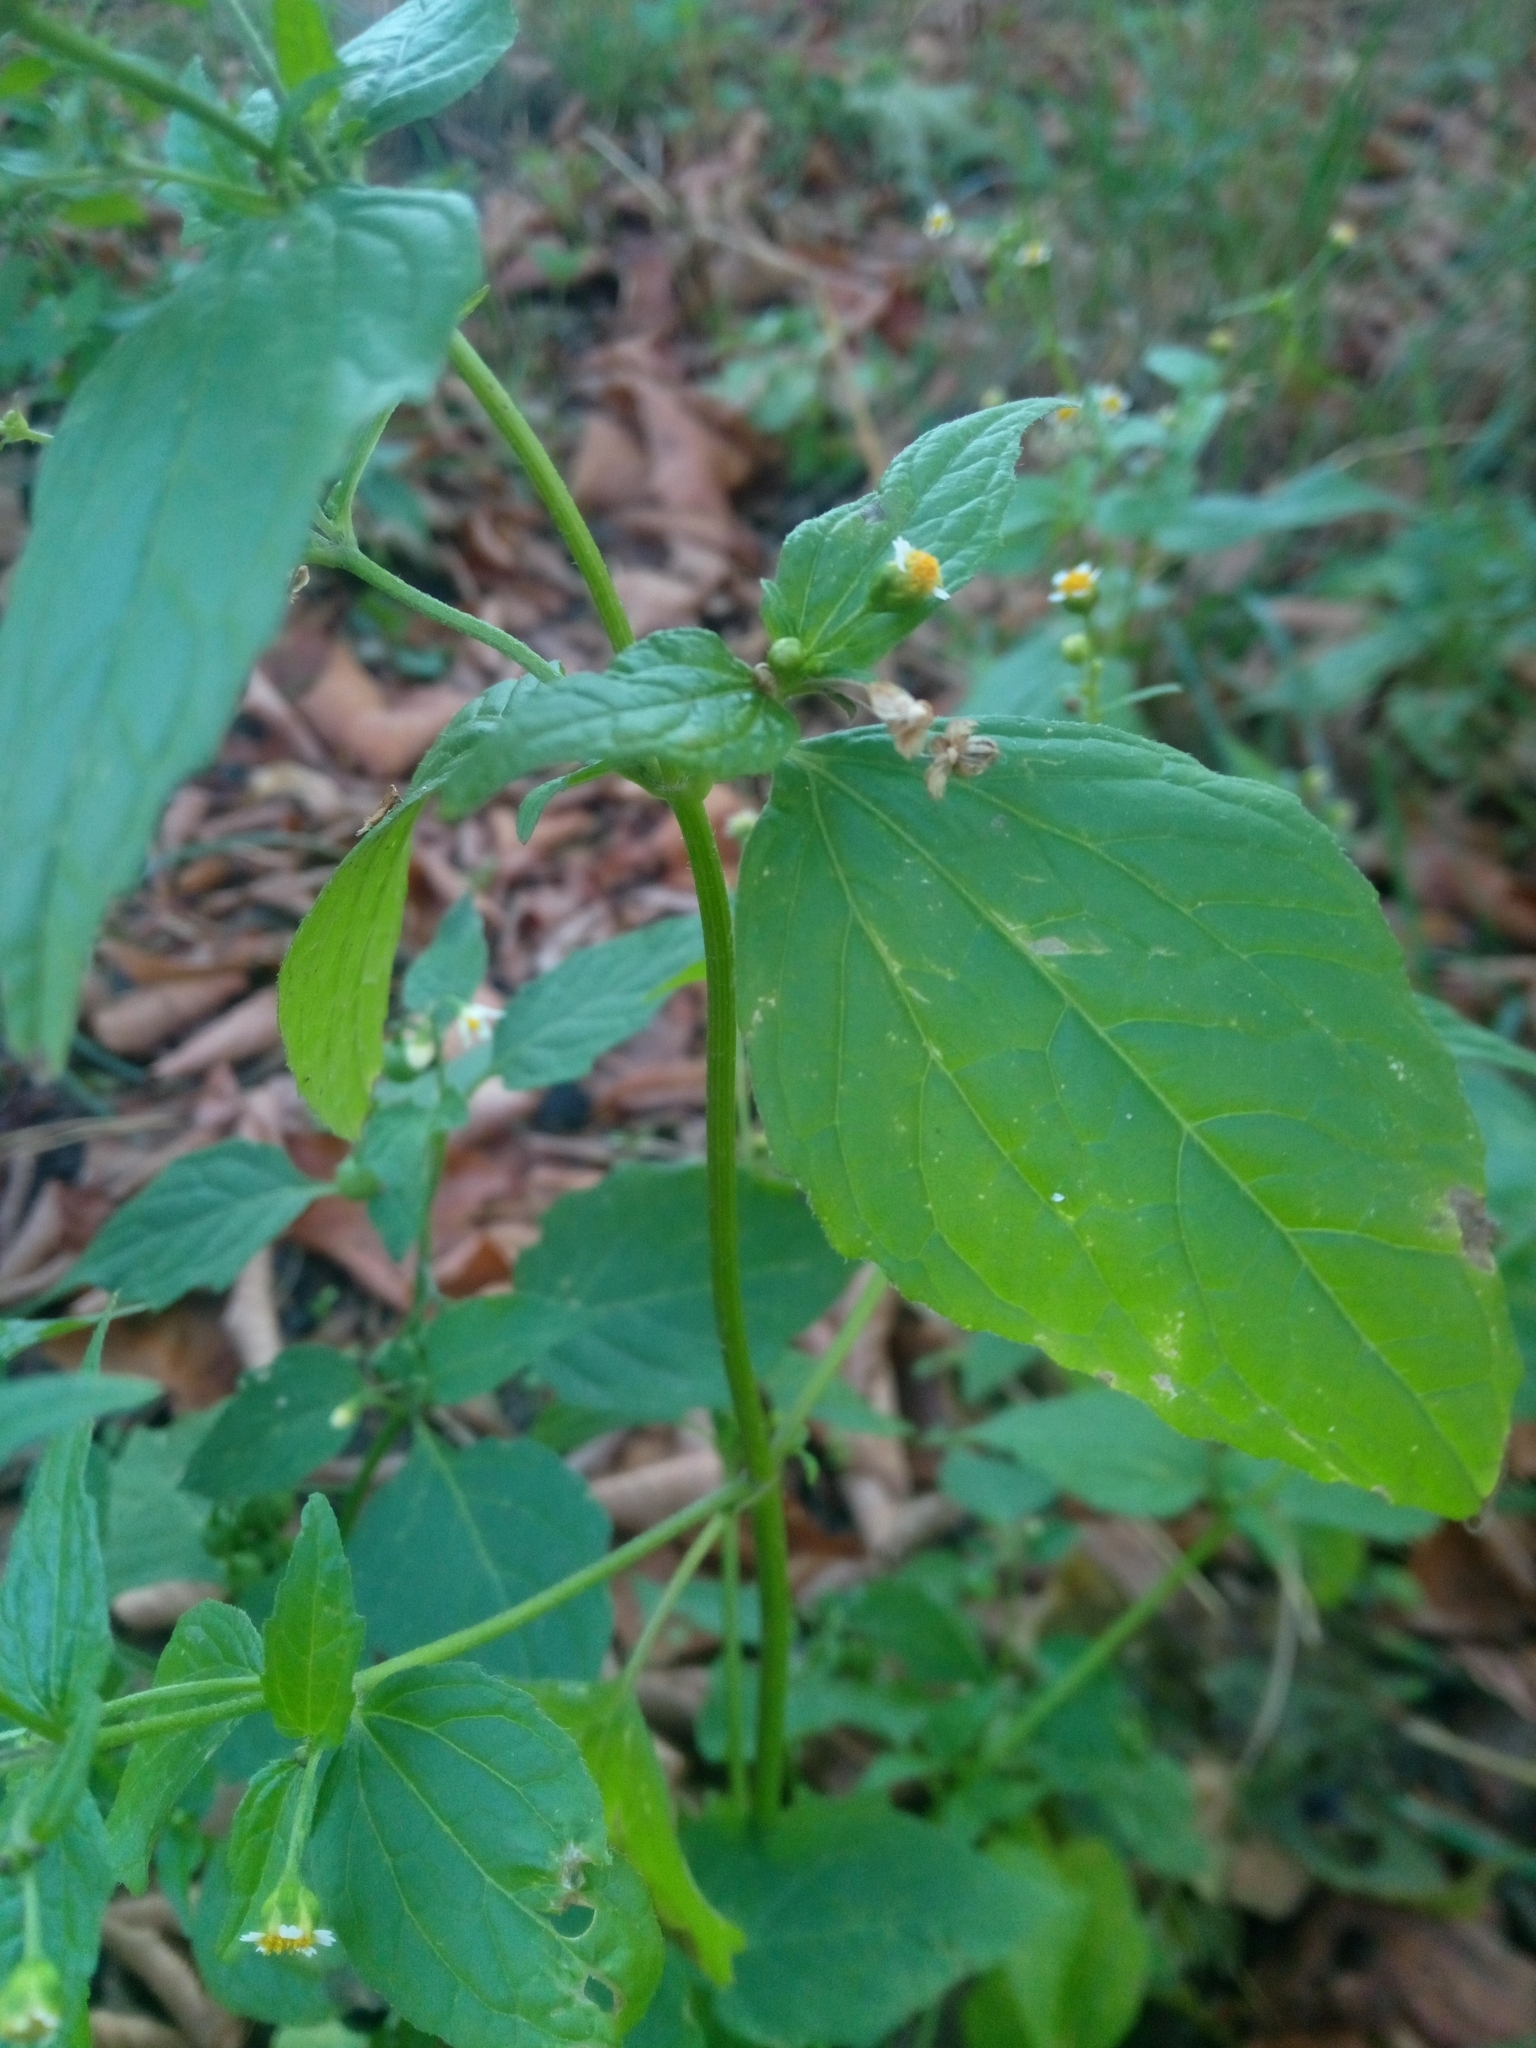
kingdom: Plantae
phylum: Tracheophyta
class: Magnoliopsida
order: Asterales
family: Asteraceae
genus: Galinsoga
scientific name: Galinsoga parviflora
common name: Gallant soldier
